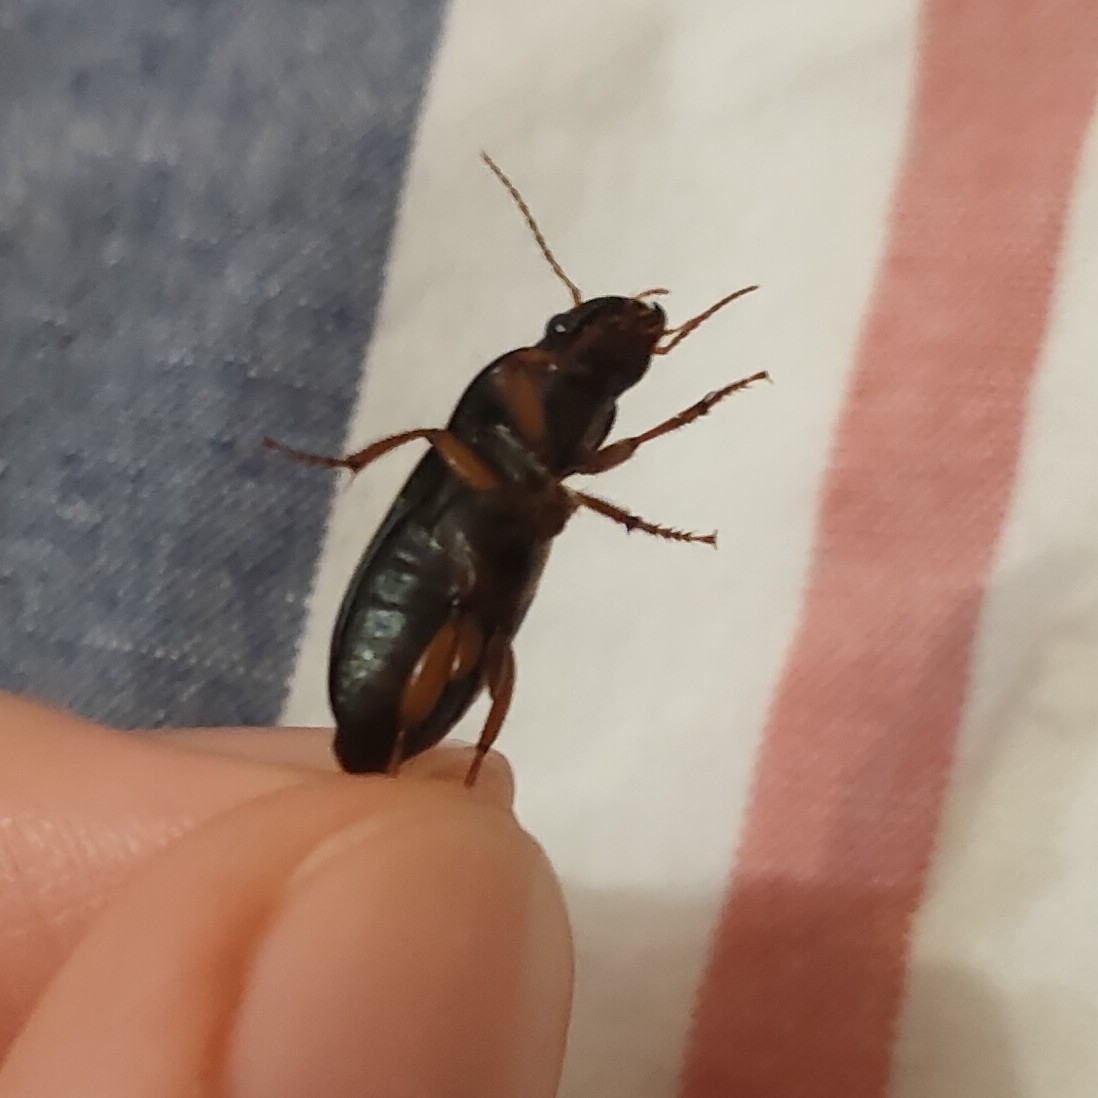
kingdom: Animalia
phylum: Arthropoda
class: Insecta
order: Coleoptera
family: Carabidae
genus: Harpalus
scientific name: Harpalus rufipes
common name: Strawberry harp ground beetle
